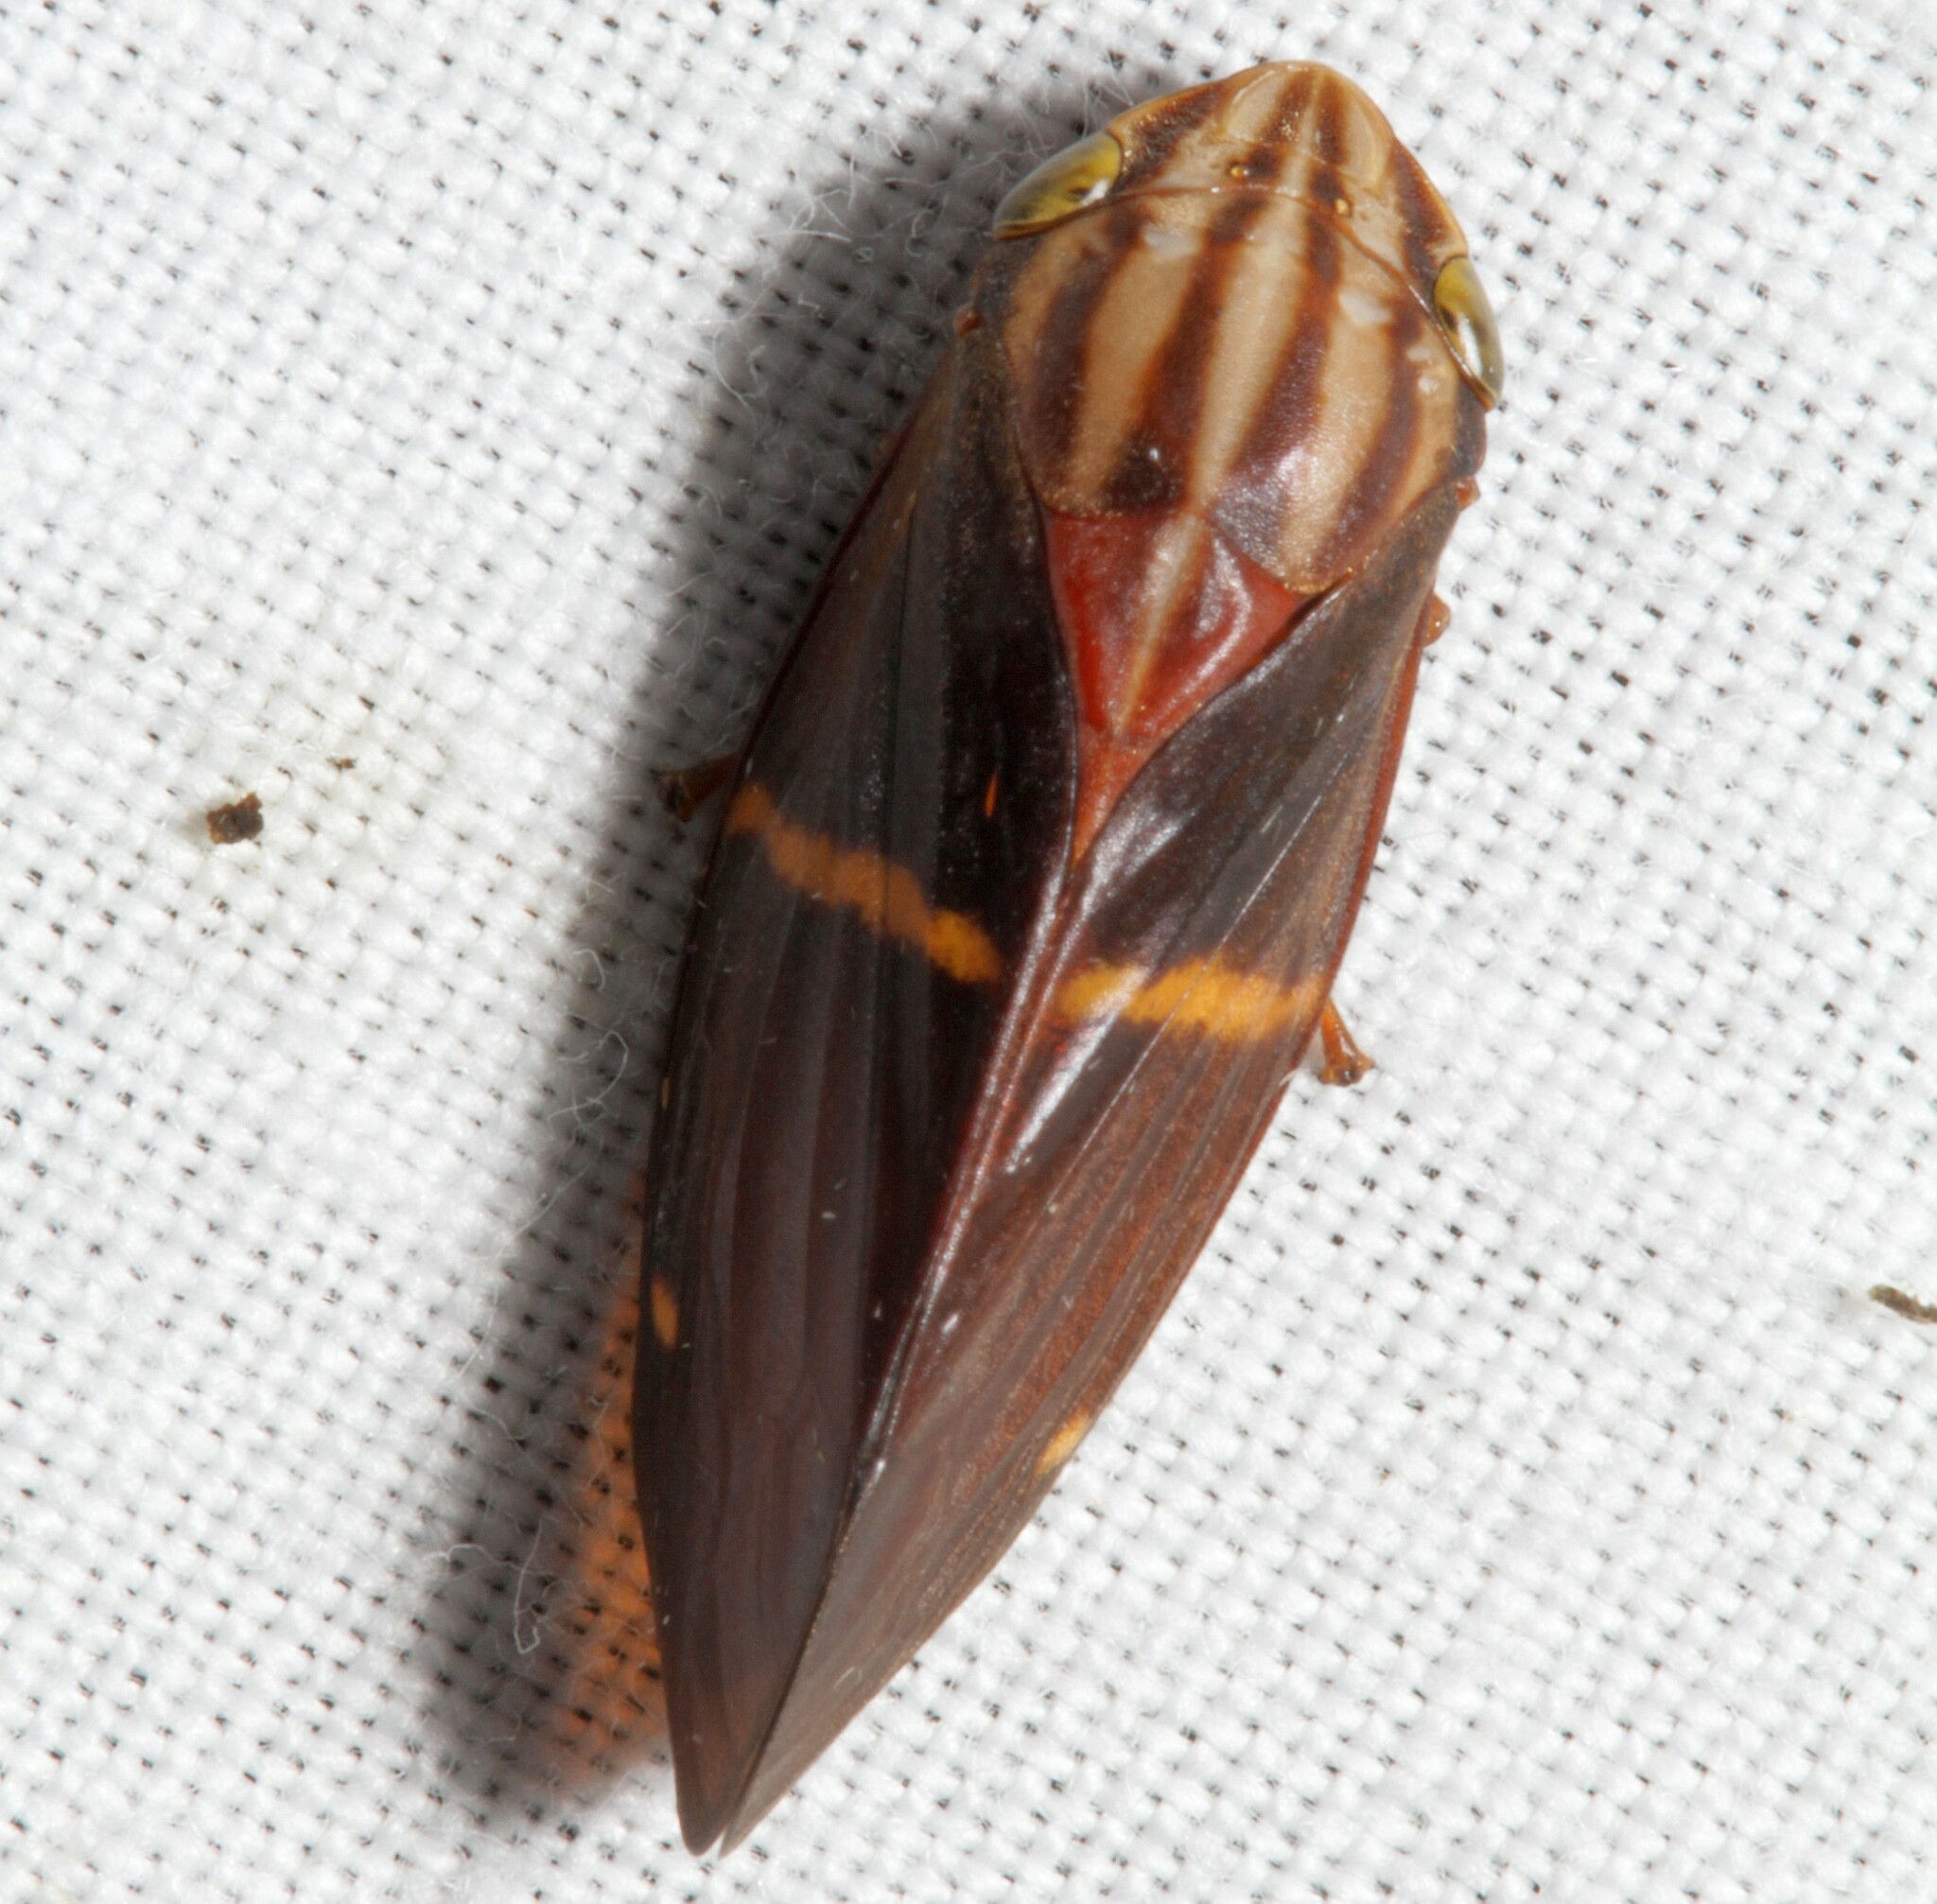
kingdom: Animalia
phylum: Arthropoda
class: Insecta
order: Hemiptera
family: Aphrophoridae
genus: Sphodroscarta
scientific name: Sphodroscarta gigas
